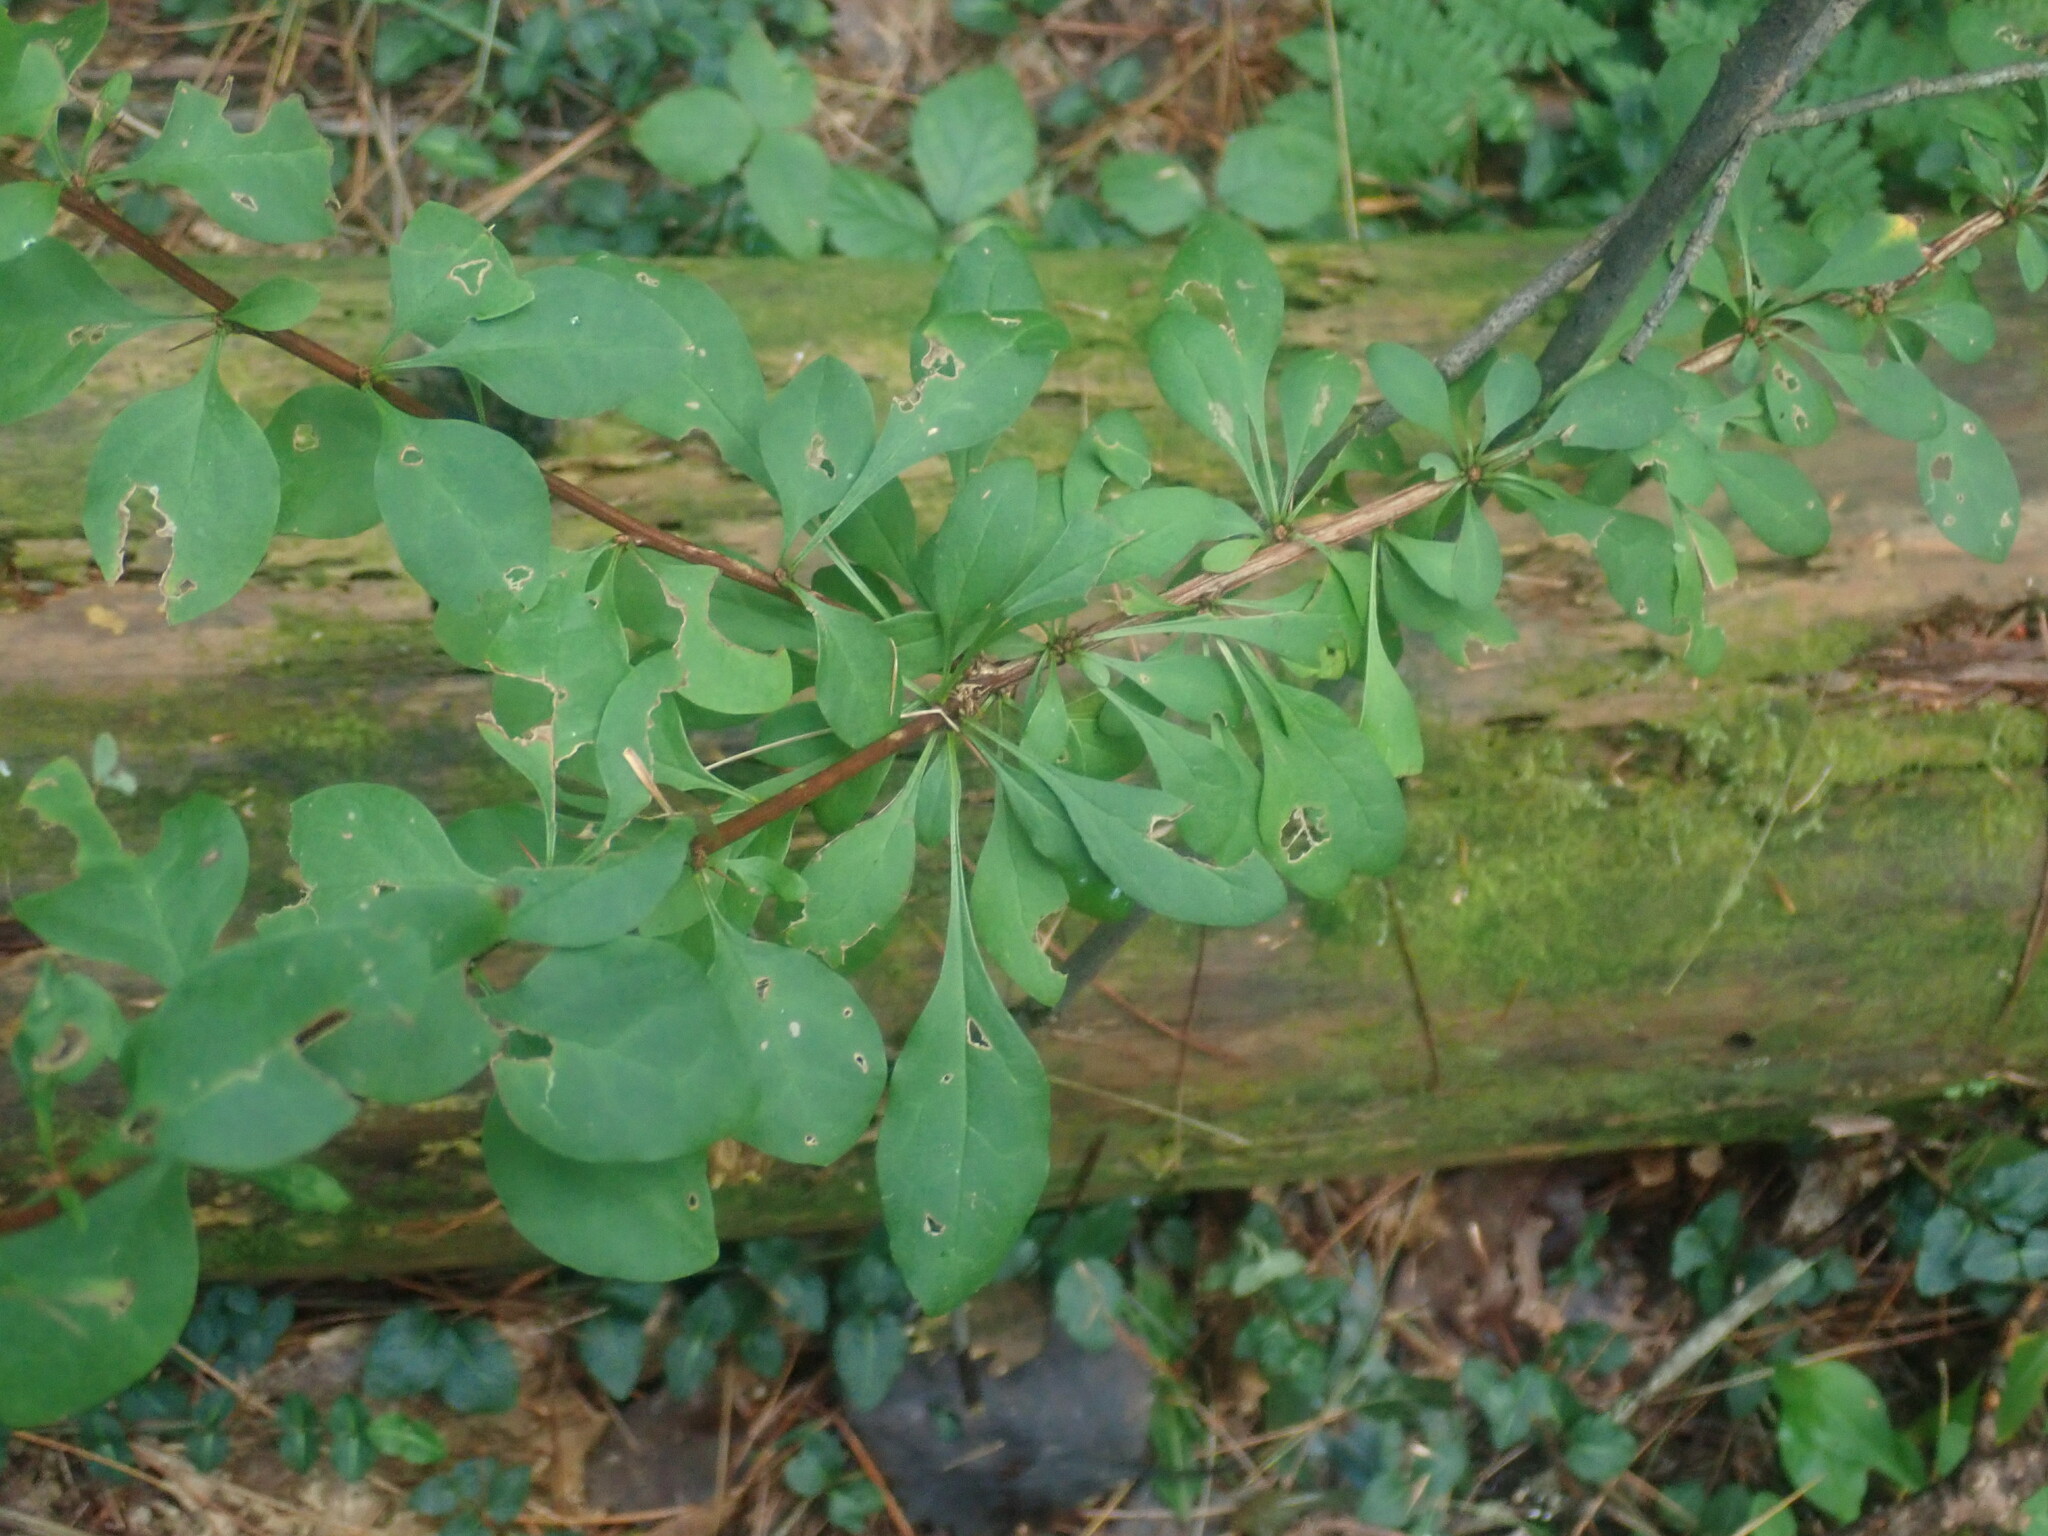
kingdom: Plantae
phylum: Tracheophyta
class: Magnoliopsida
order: Ranunculales
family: Berberidaceae
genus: Berberis
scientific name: Berberis thunbergii
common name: Japanese barberry
